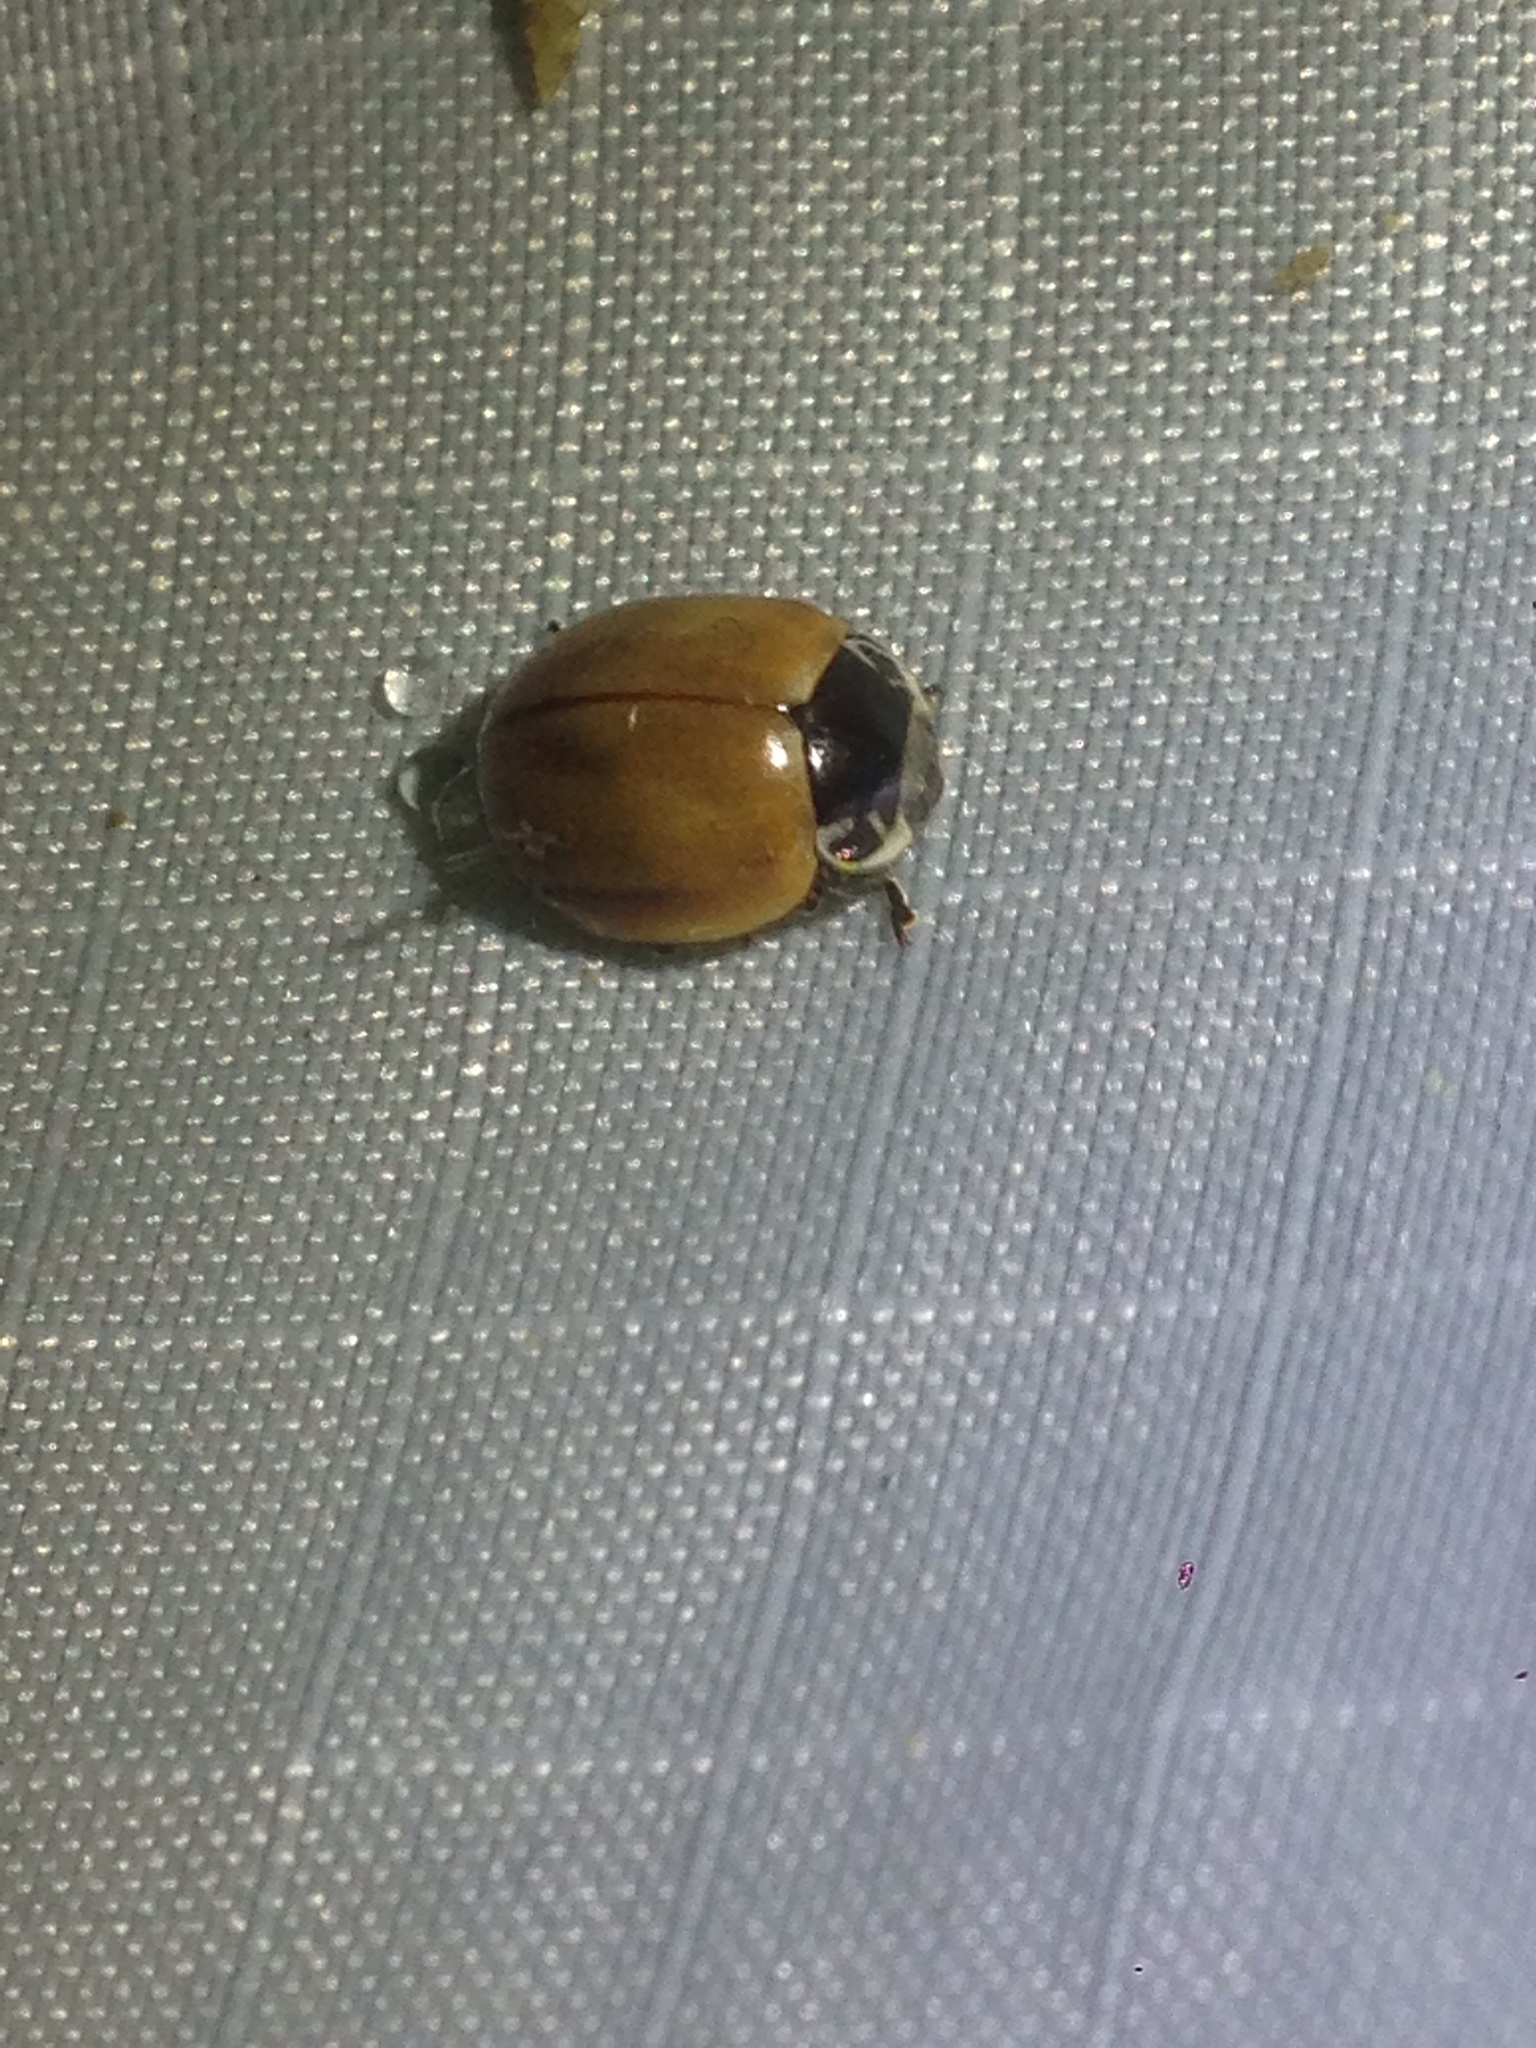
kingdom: Animalia
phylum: Arthropoda
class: Insecta
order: Coleoptera
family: Coccinellidae
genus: Myzia
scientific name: Myzia pullata
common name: Streaked lady beetle
